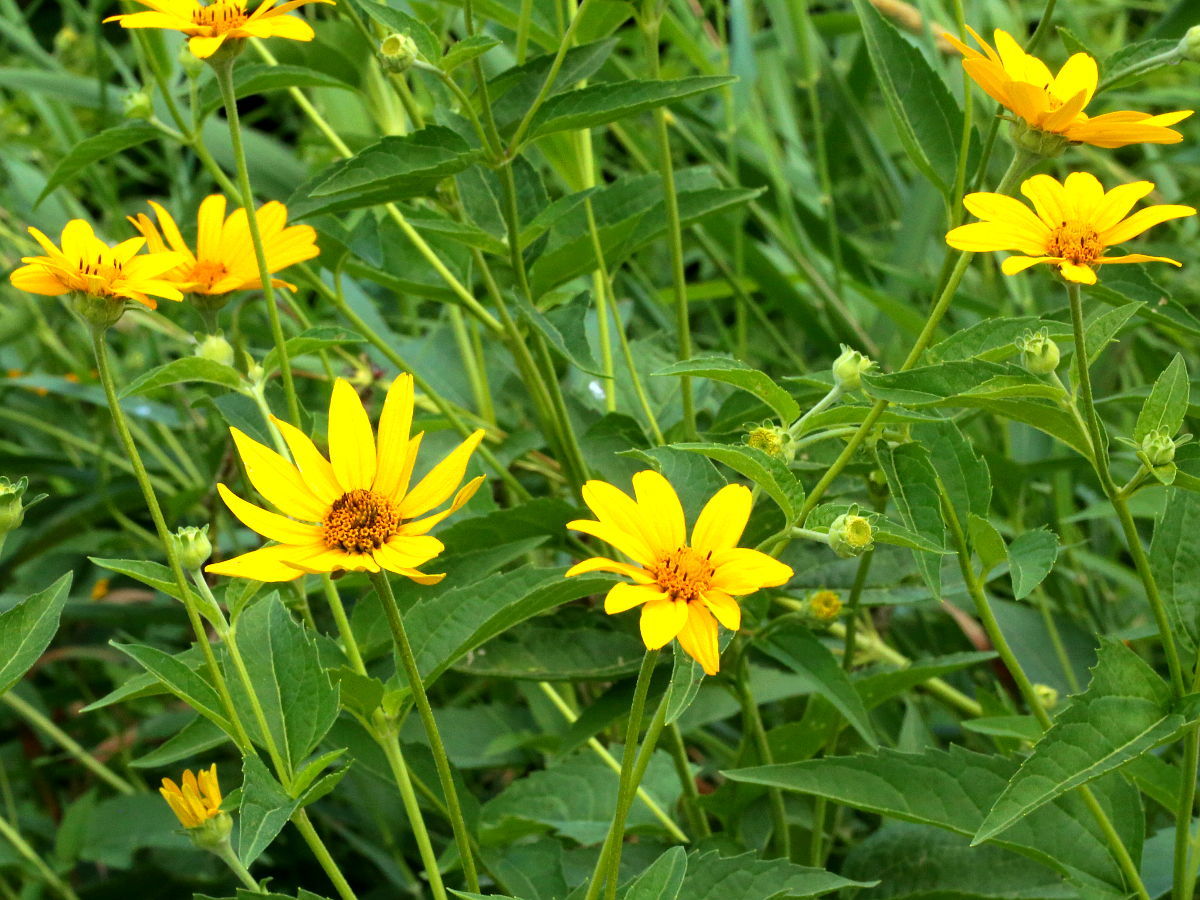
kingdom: Plantae
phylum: Tracheophyta
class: Magnoliopsida
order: Asterales
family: Asteraceae
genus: Heliopsis
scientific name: Heliopsis helianthoides
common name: False sunflower
